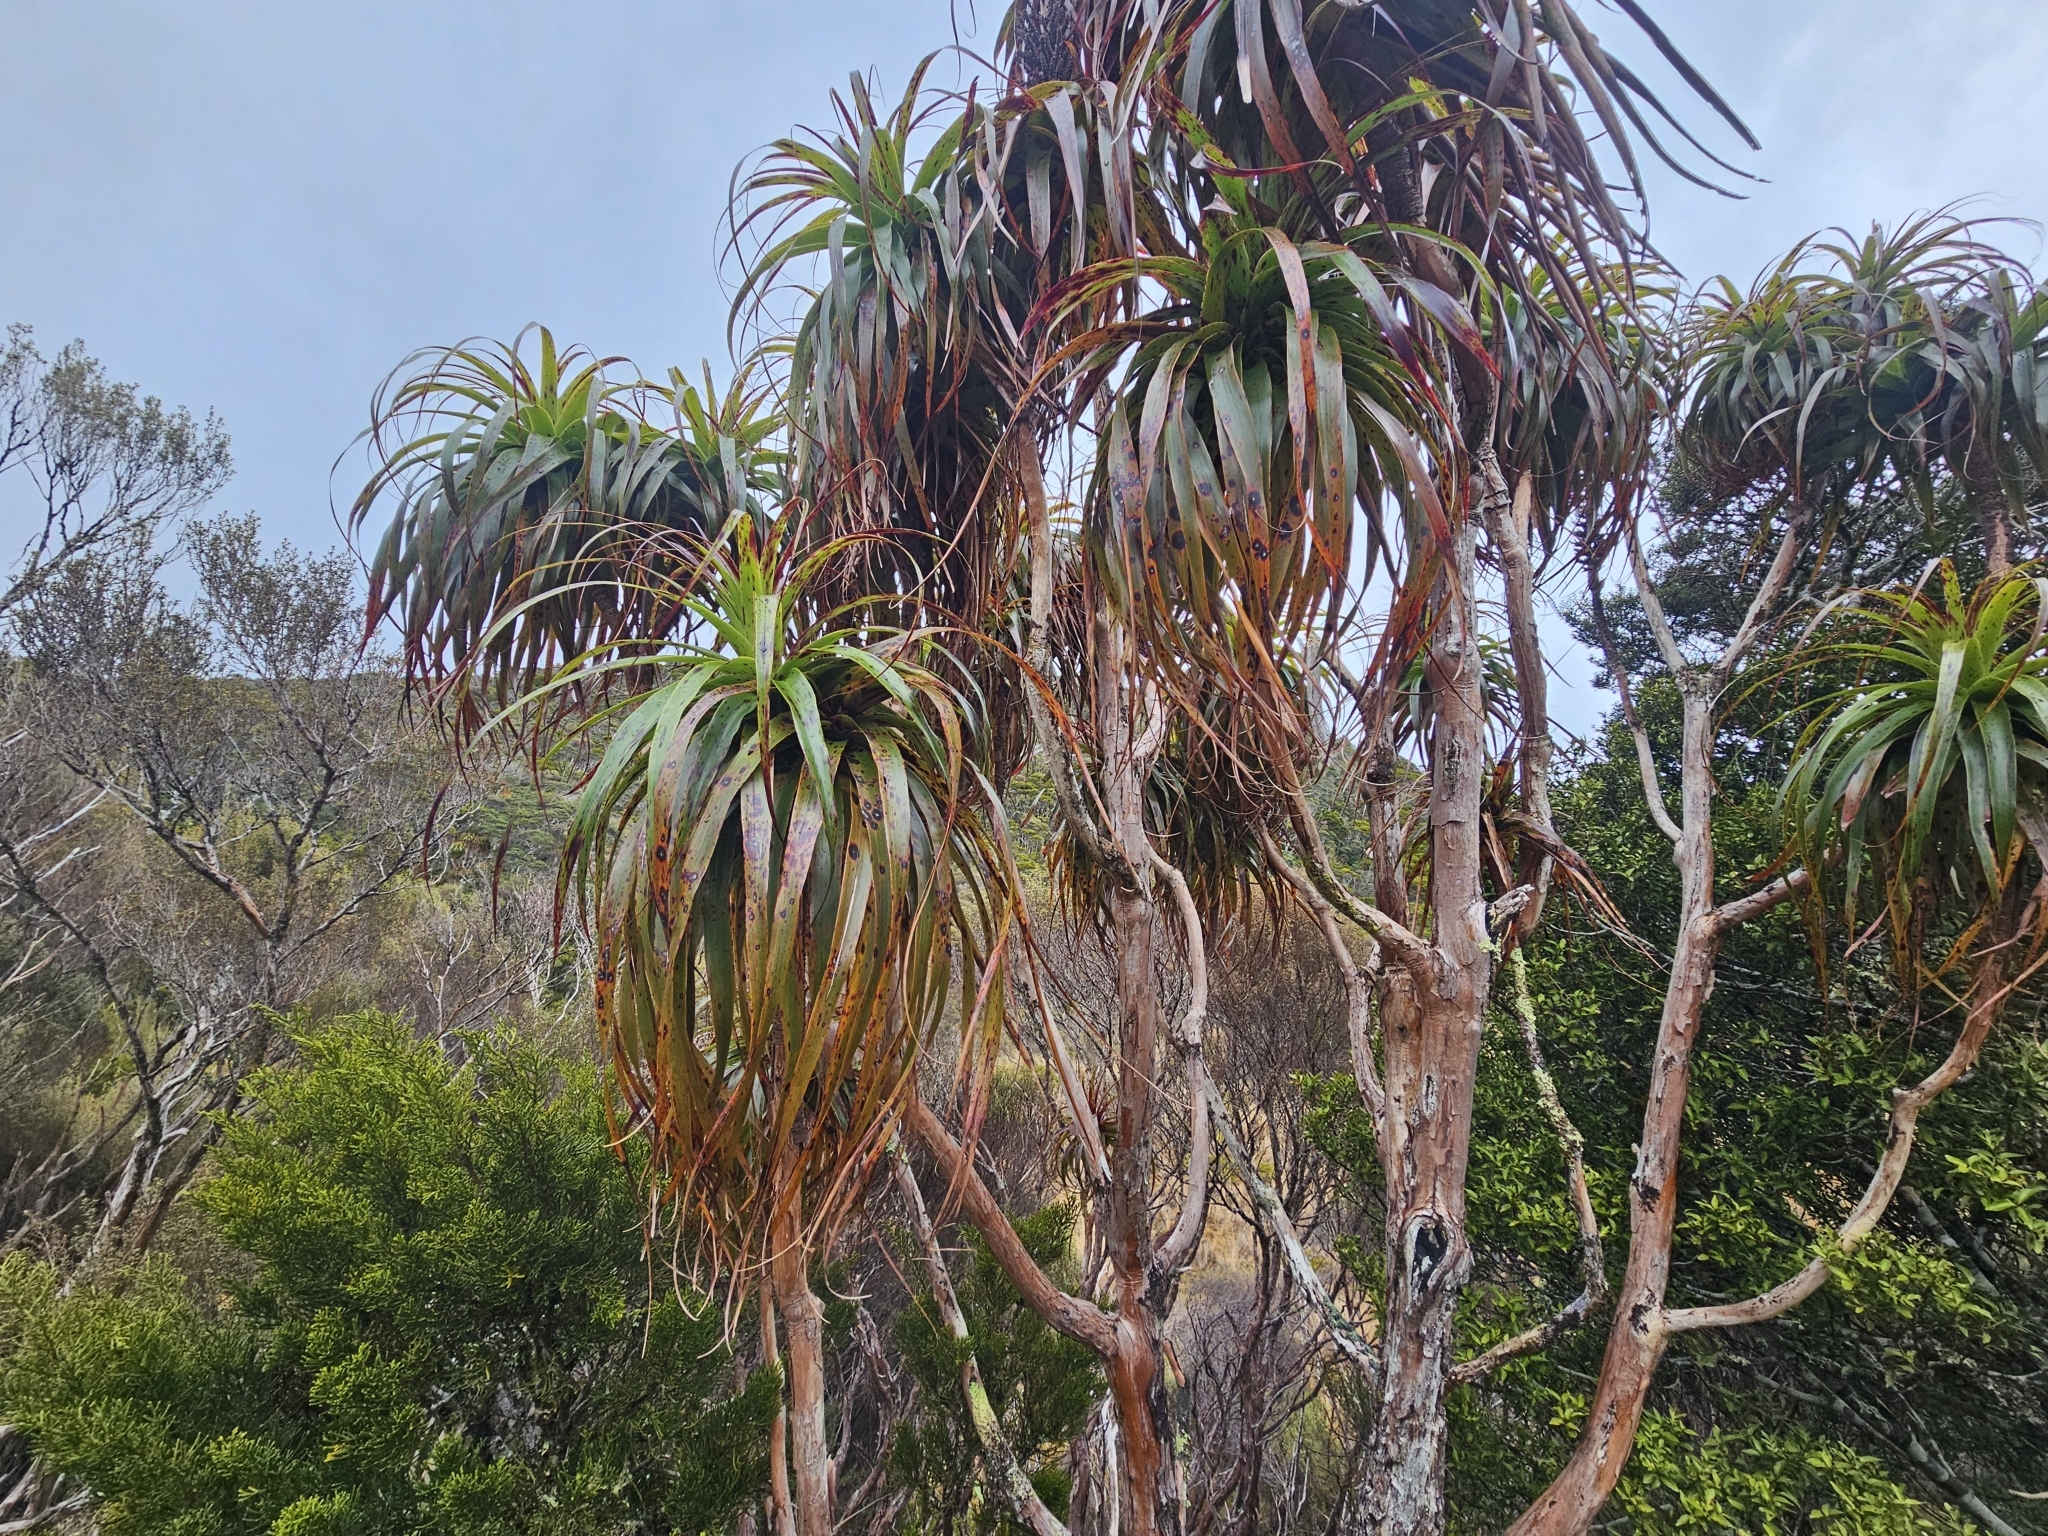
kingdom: Plantae
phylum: Tracheophyta
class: Magnoliopsida
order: Ericales
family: Ericaceae
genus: Dracophyllum
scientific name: Dracophyllum traversii
